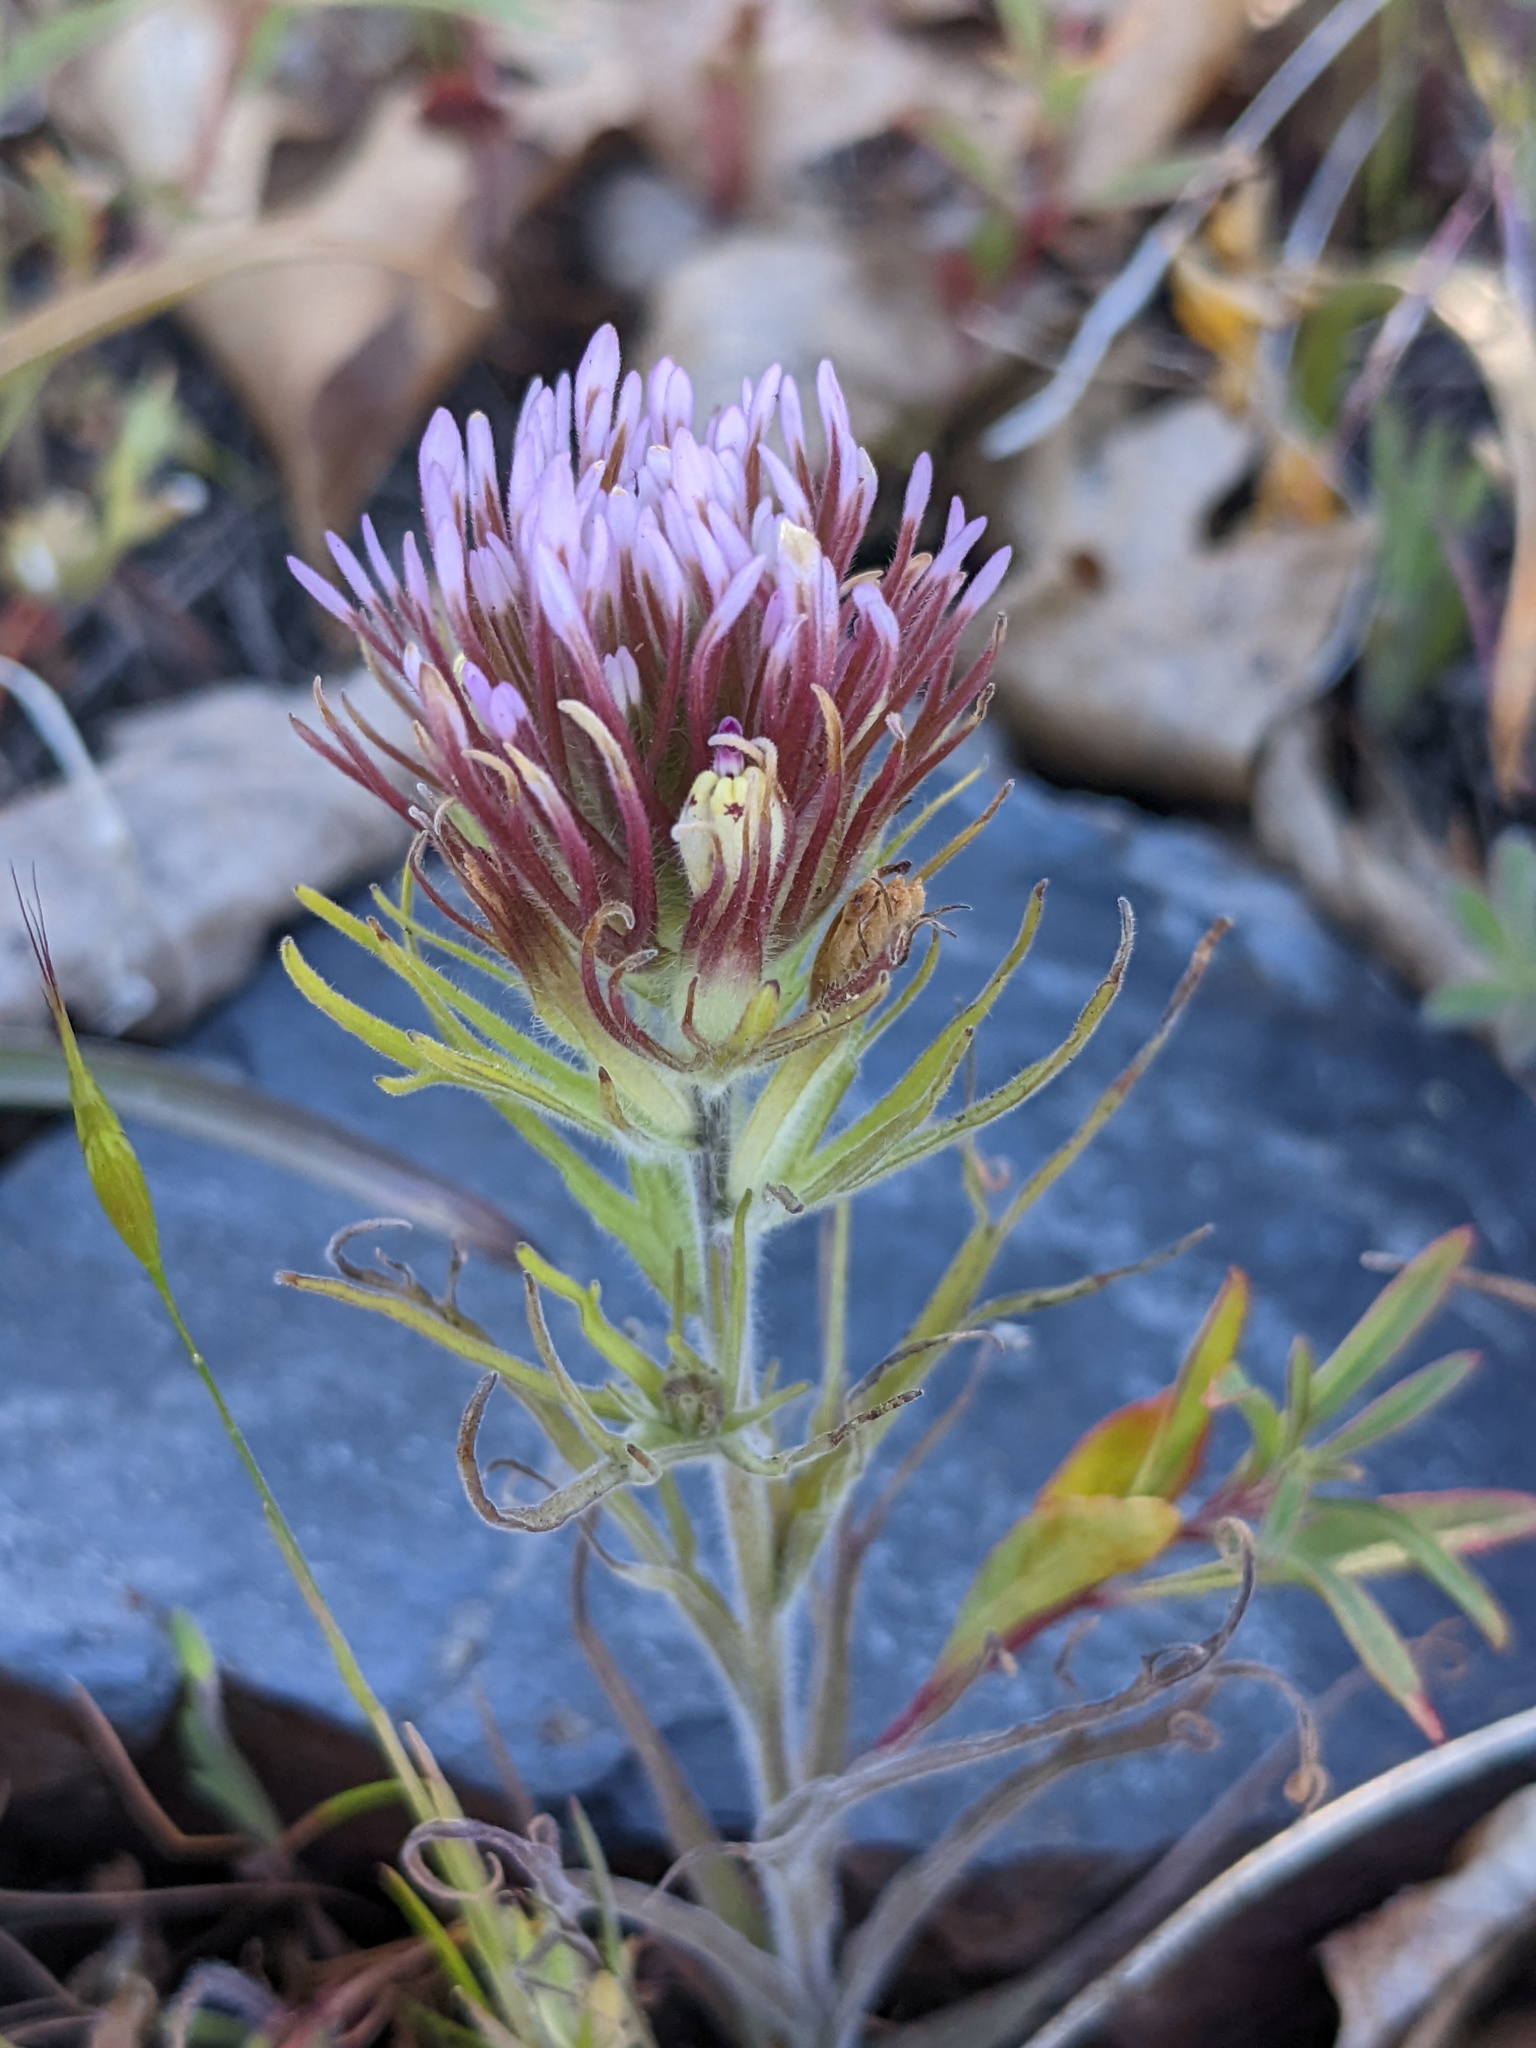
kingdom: Plantae
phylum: Tracheophyta
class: Magnoliopsida
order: Lamiales
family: Orobanchaceae
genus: Castilleja
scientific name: Castilleja exserta
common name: Purple owl-clover
